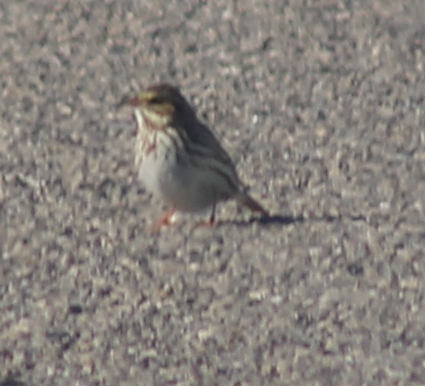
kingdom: Animalia
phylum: Chordata
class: Aves
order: Passeriformes
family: Passerellidae
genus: Passerculus
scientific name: Passerculus sandwichensis
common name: Savannah sparrow
